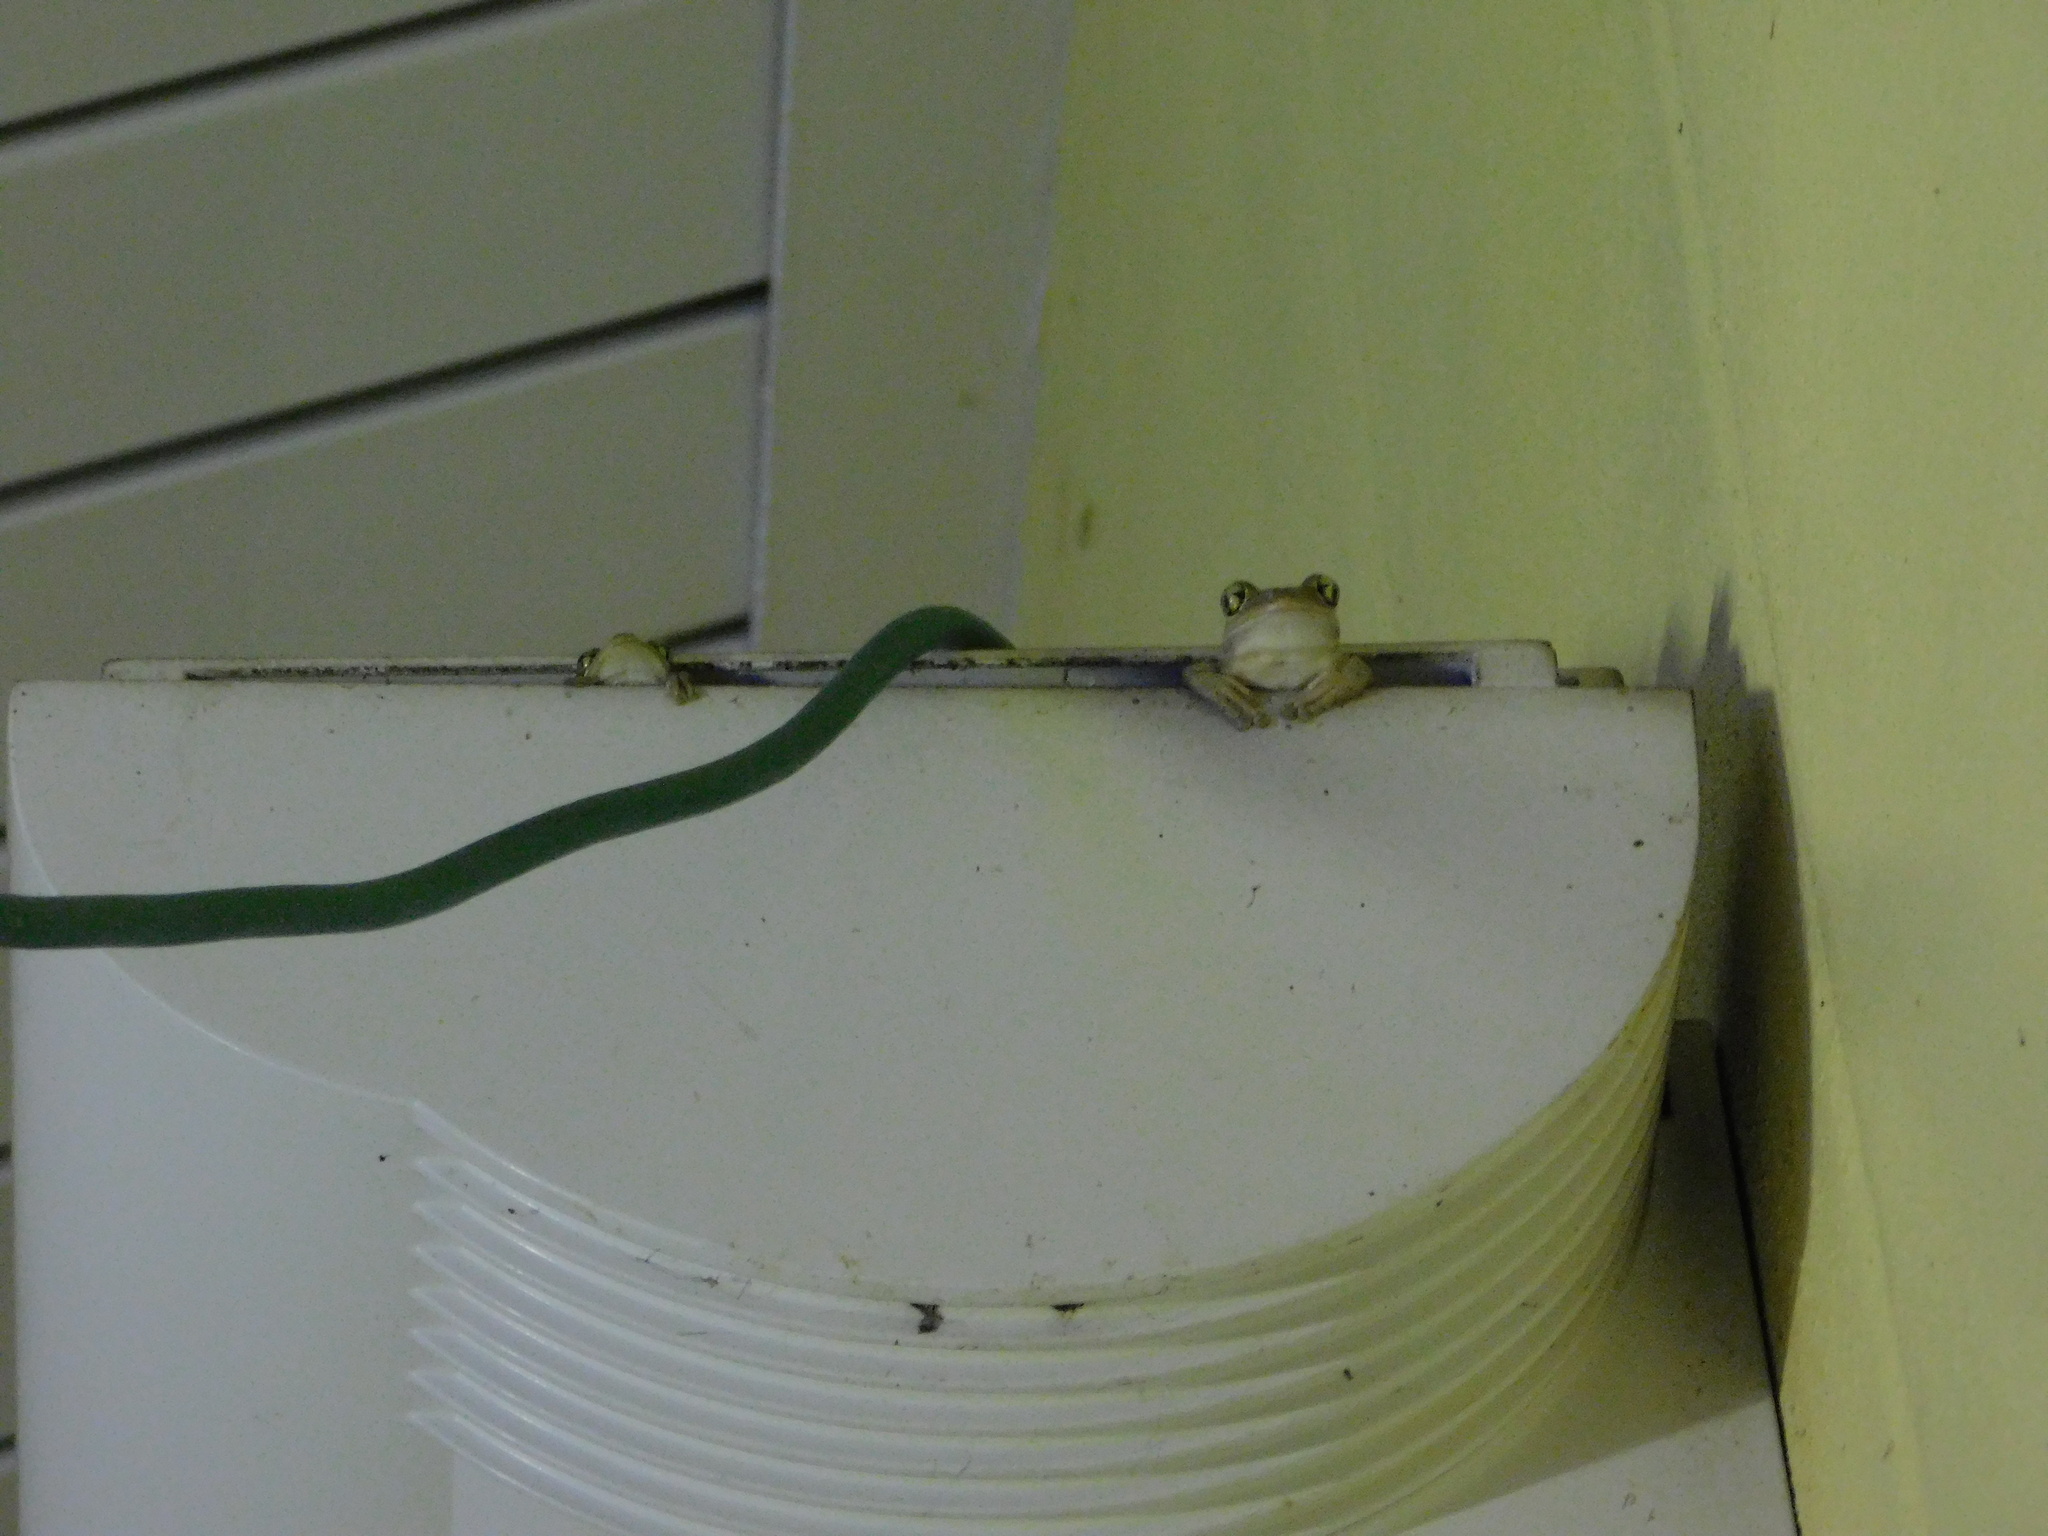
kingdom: Animalia
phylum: Chordata
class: Amphibia
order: Anura
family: Hylidae
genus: Osteopilus
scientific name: Osteopilus septentrionalis
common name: Cuban treefrog
